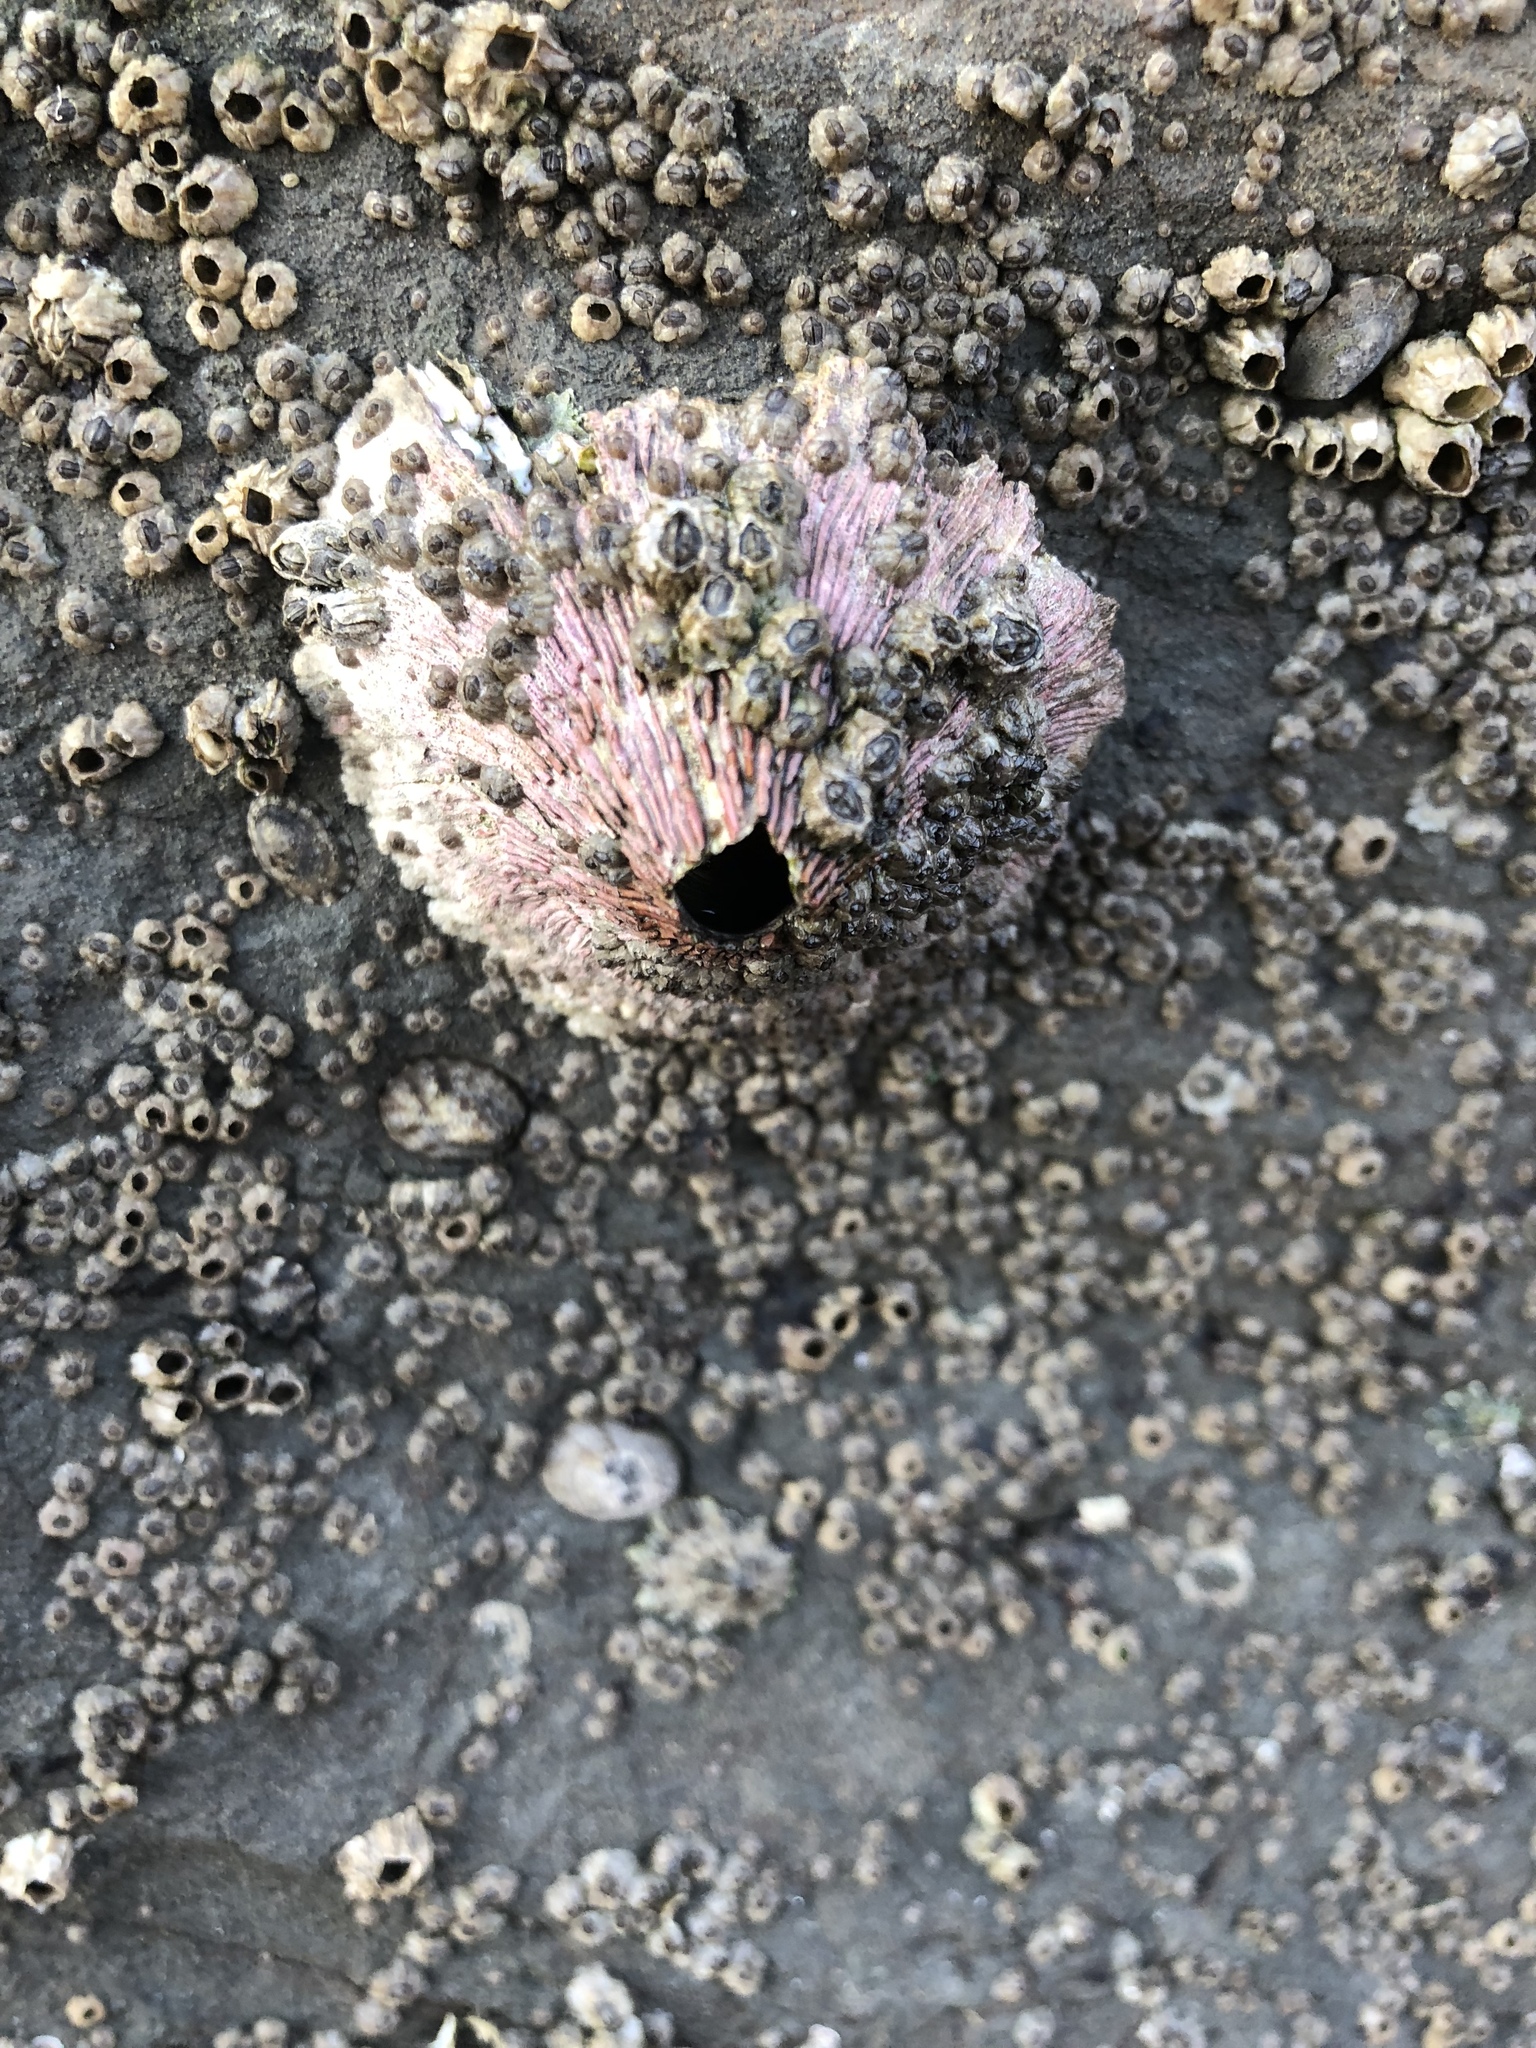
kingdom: Animalia
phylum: Arthropoda
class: Maxillopoda
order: Sessilia
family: Tetraclitidae
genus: Tetraclita
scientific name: Tetraclita rubescens
